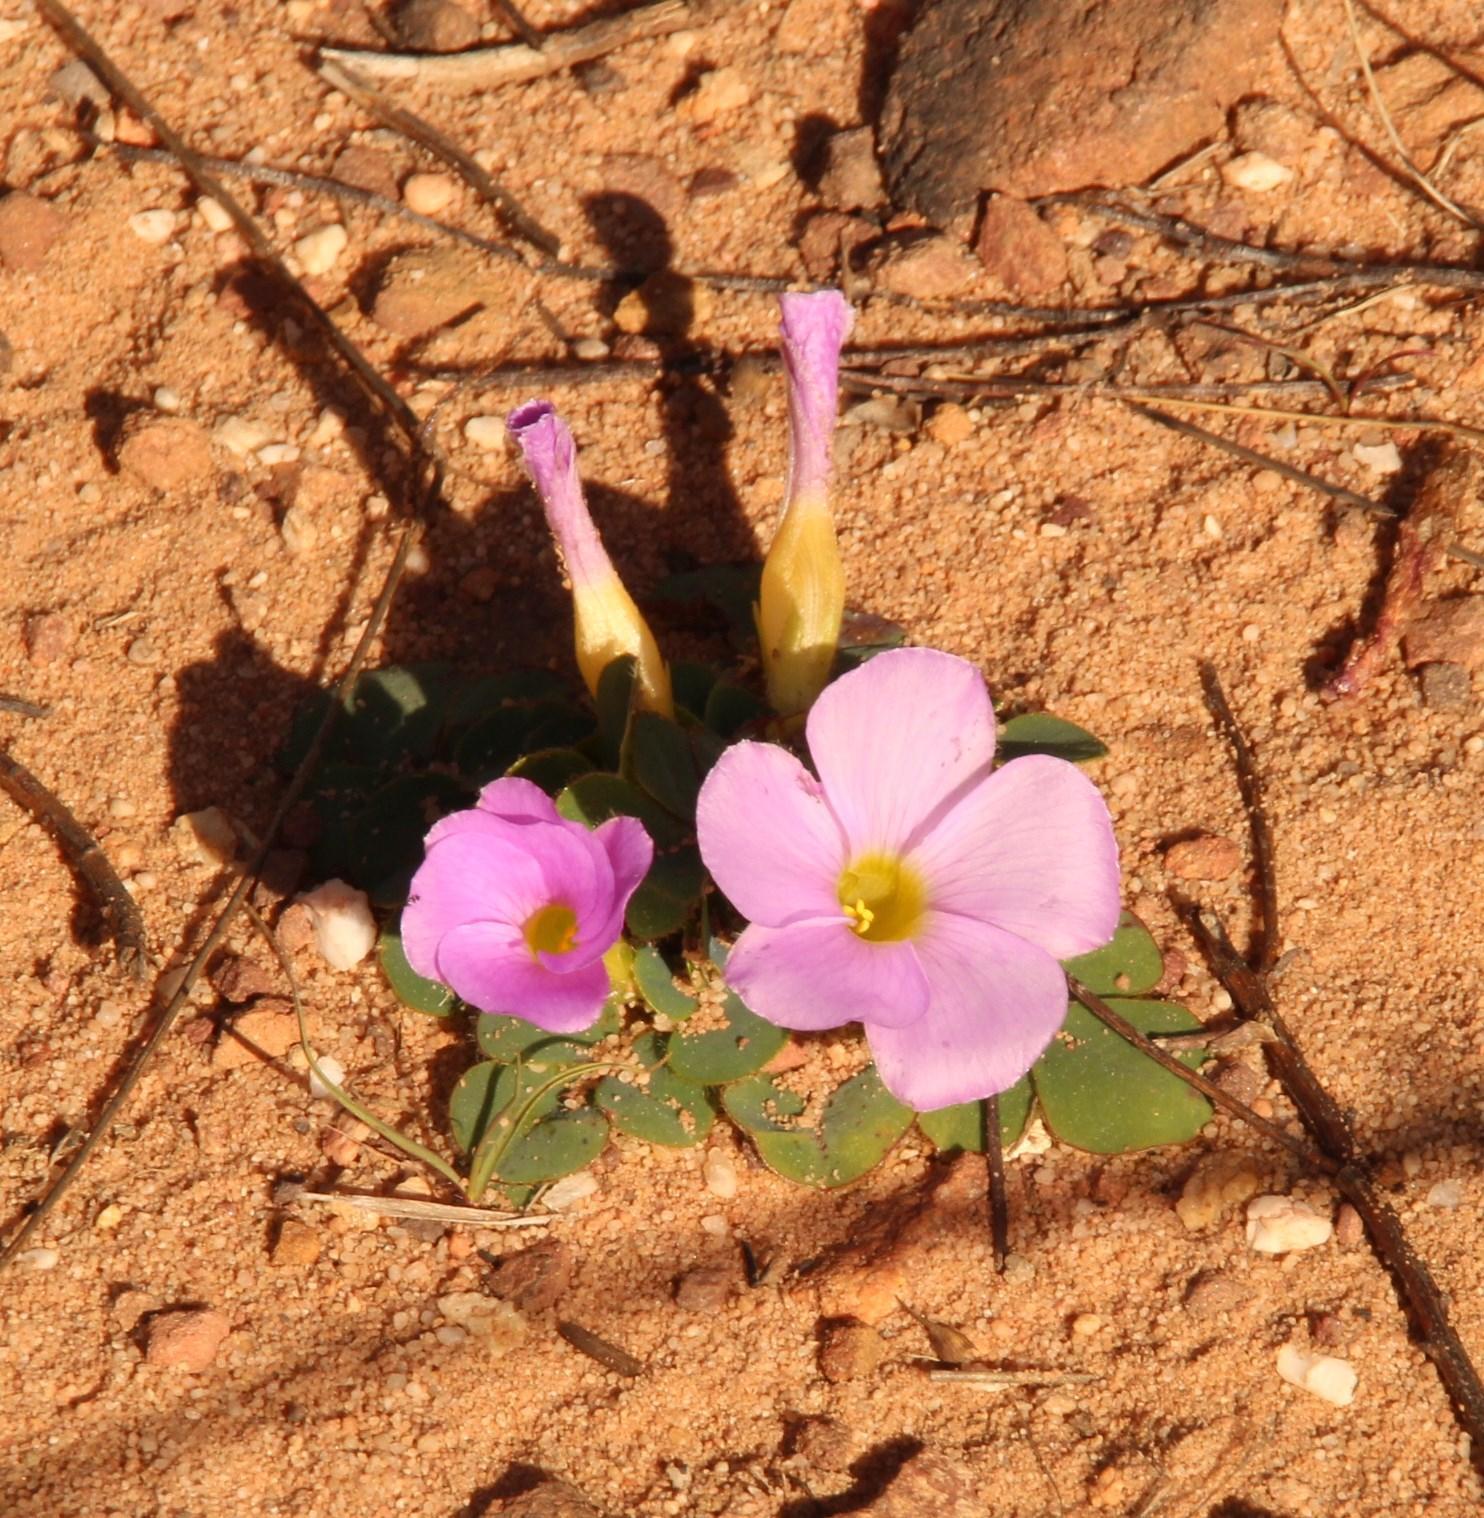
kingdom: Plantae
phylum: Tracheophyta
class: Magnoliopsida
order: Oxalidales
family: Oxalidaceae
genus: Oxalis
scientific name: Oxalis purpurea
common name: Purple woodsorrel
